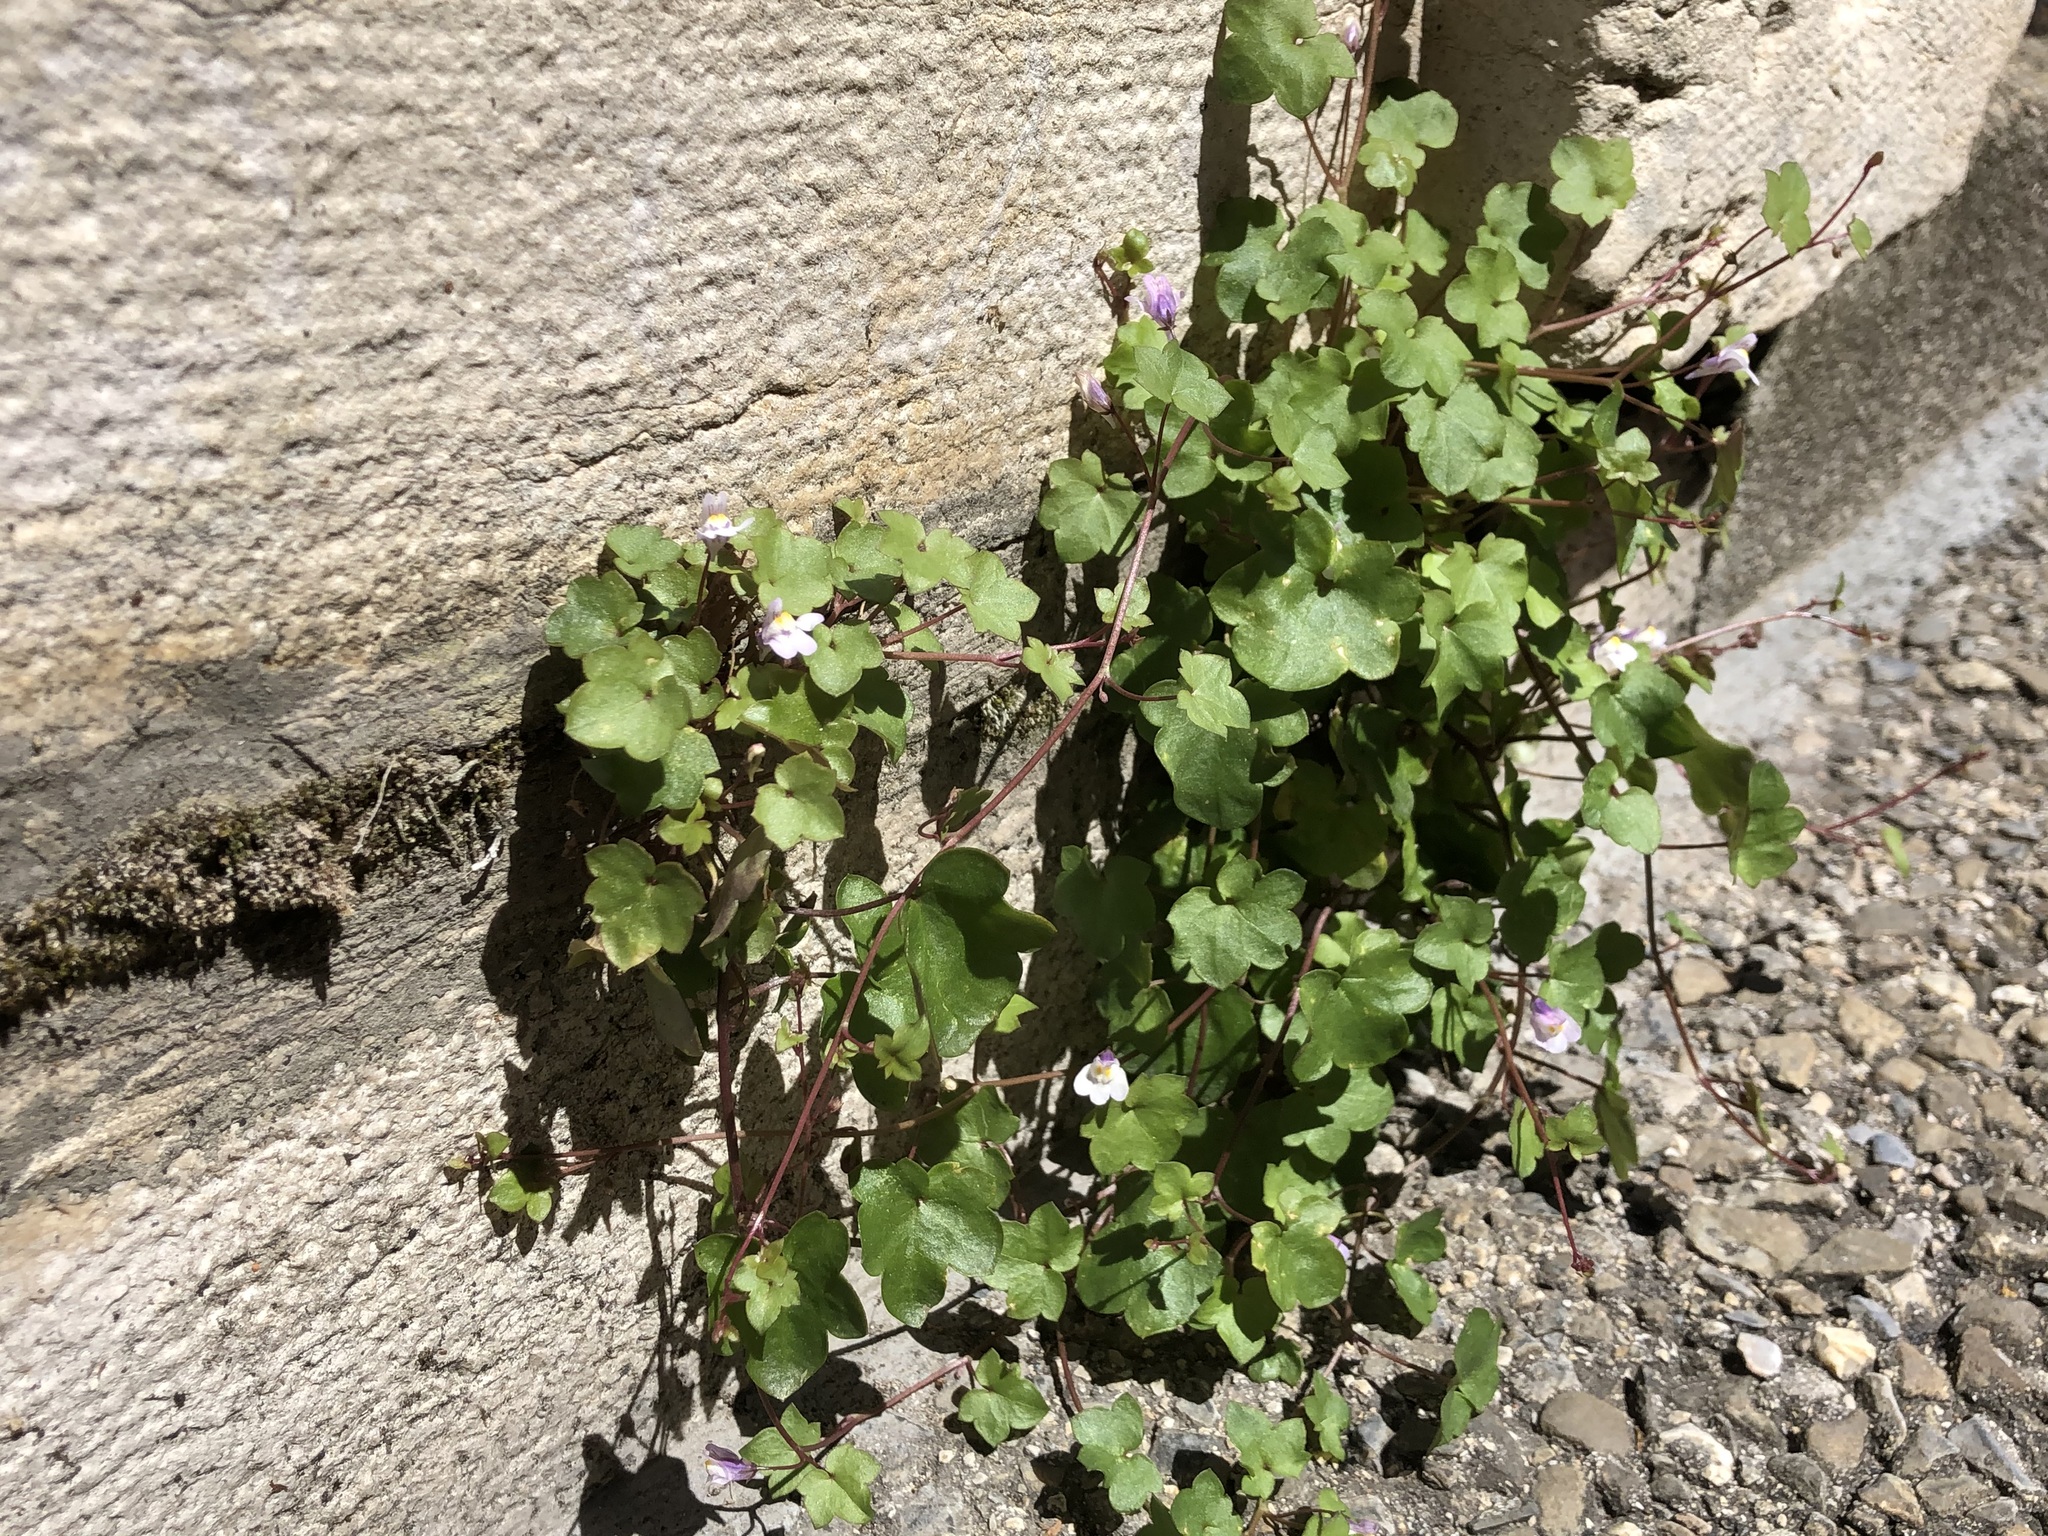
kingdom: Plantae
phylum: Tracheophyta
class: Magnoliopsida
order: Lamiales
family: Plantaginaceae
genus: Cymbalaria
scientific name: Cymbalaria muralis
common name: Ivy-leaved toadflax
